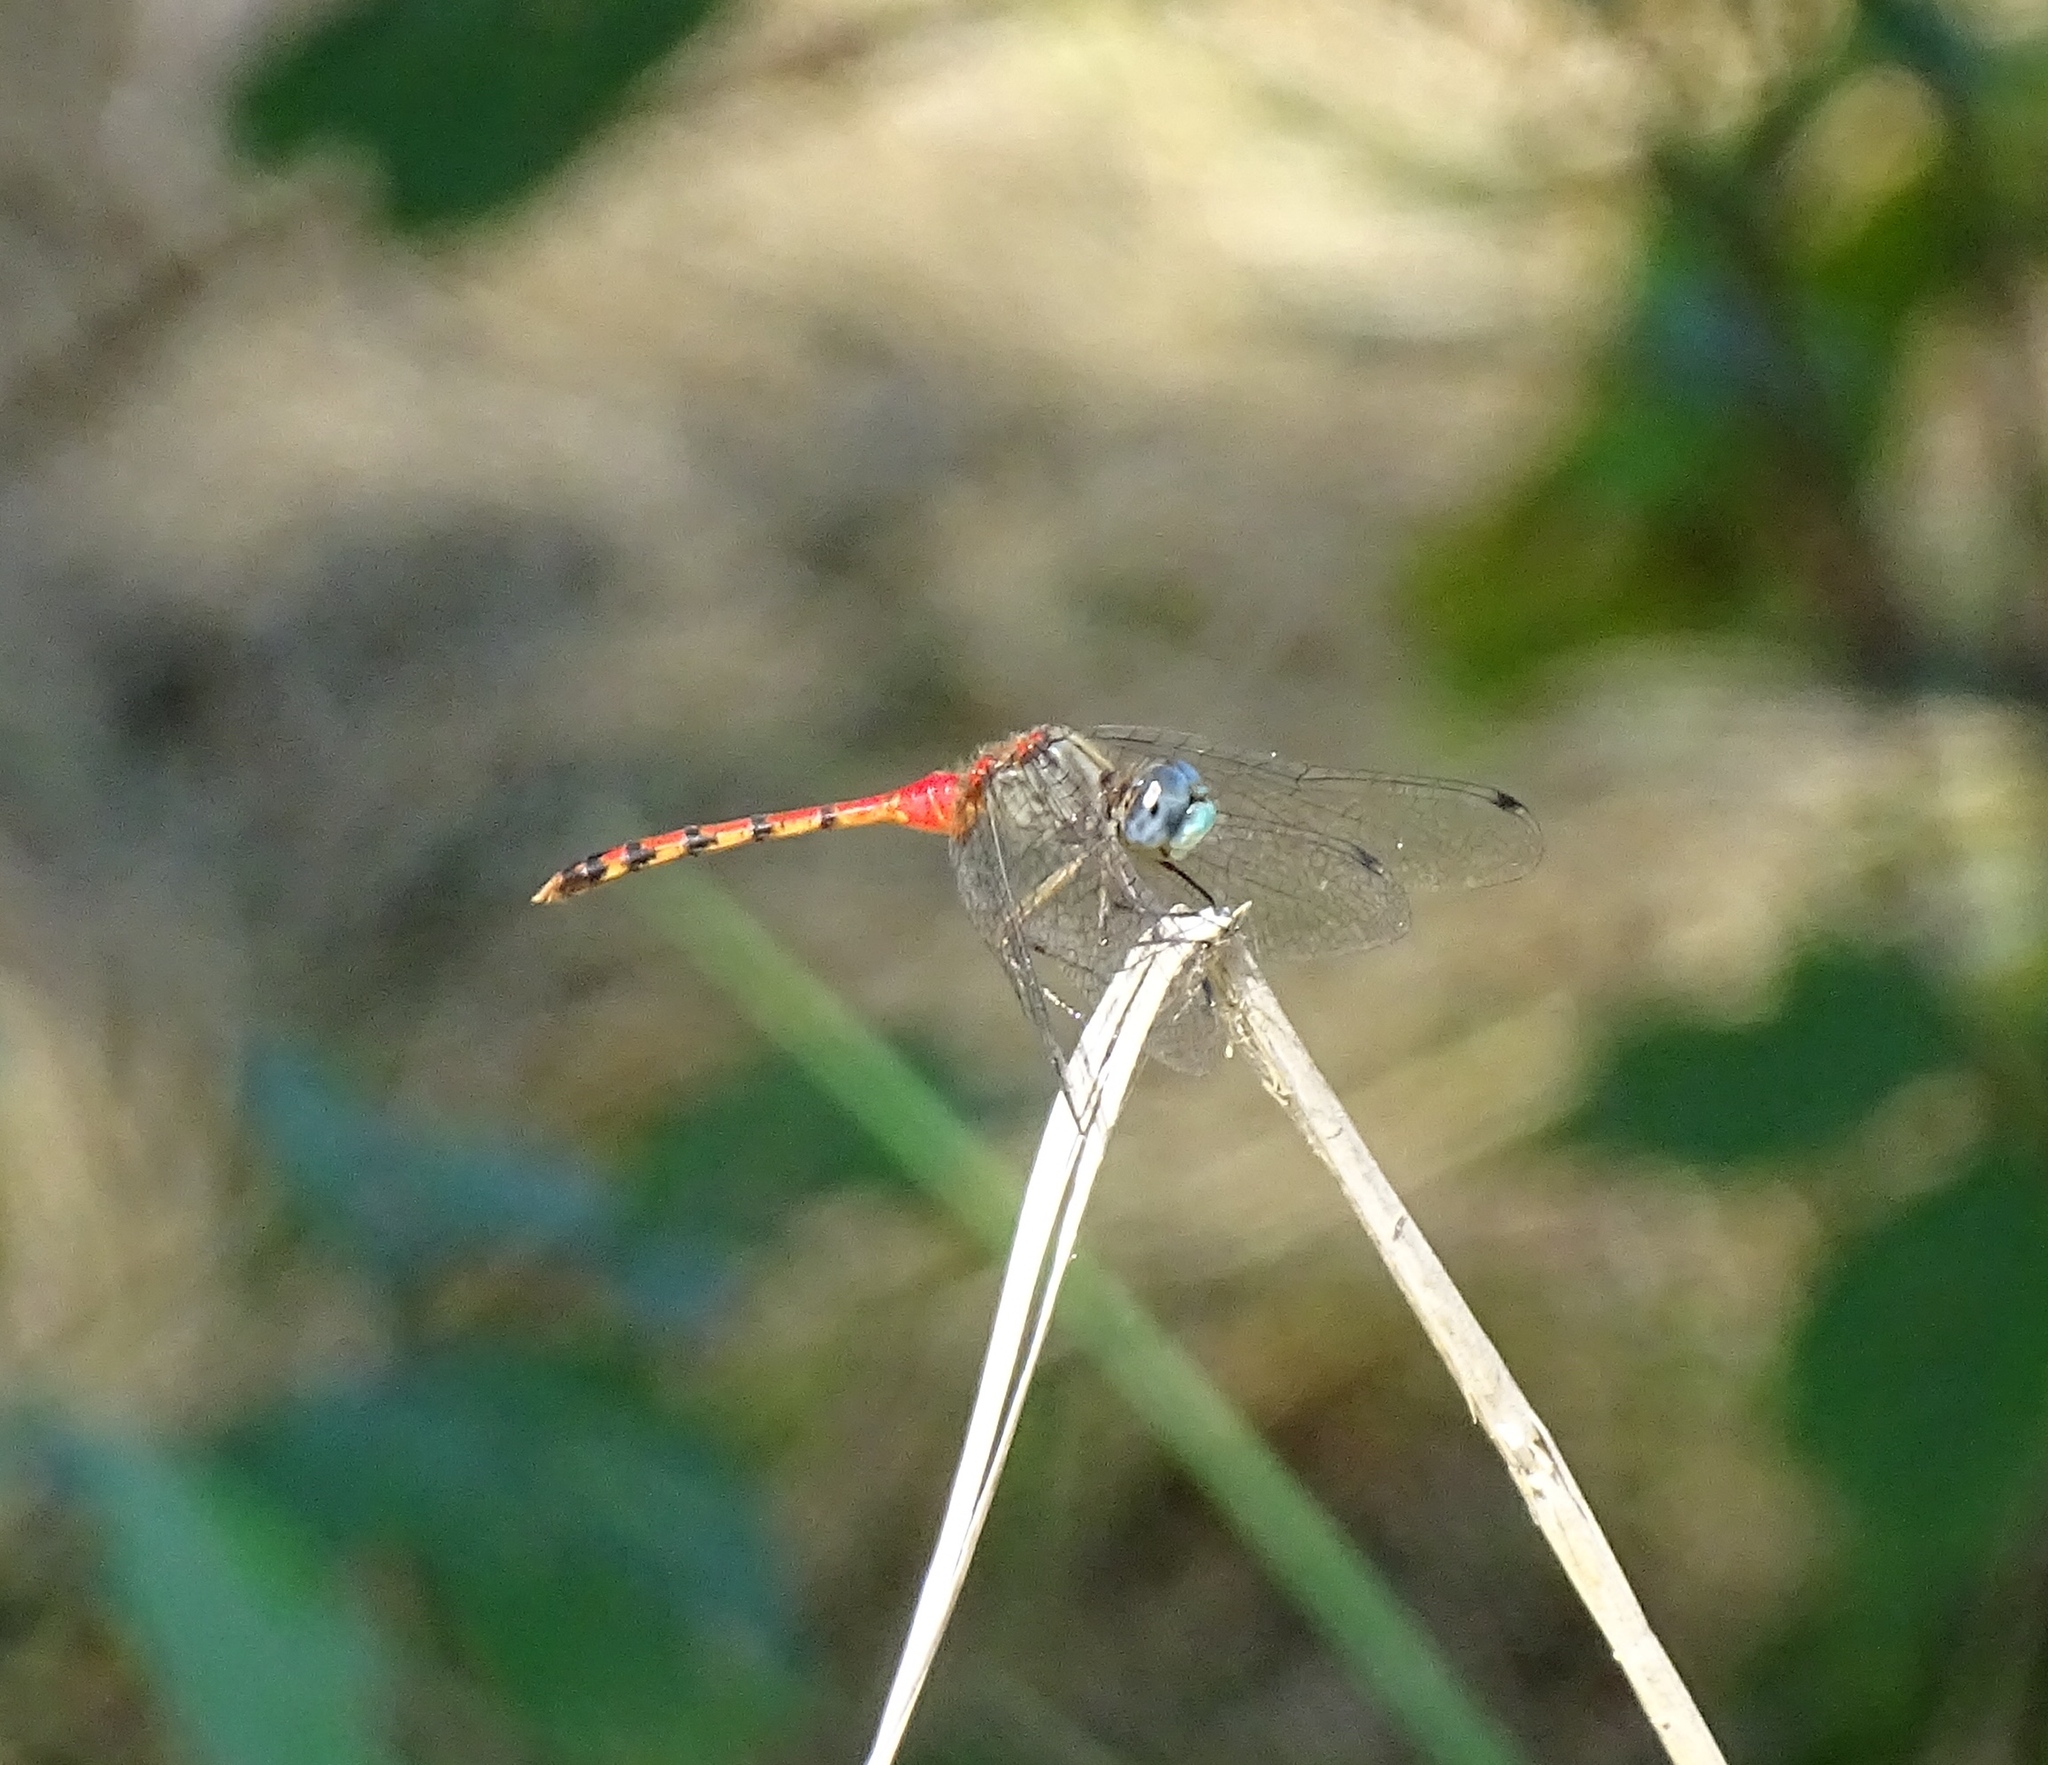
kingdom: Animalia
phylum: Arthropoda
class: Insecta
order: Odonata
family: Libellulidae
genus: Sympetrum
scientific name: Sympetrum ambiguum
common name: Blue-faced meadowhawk
